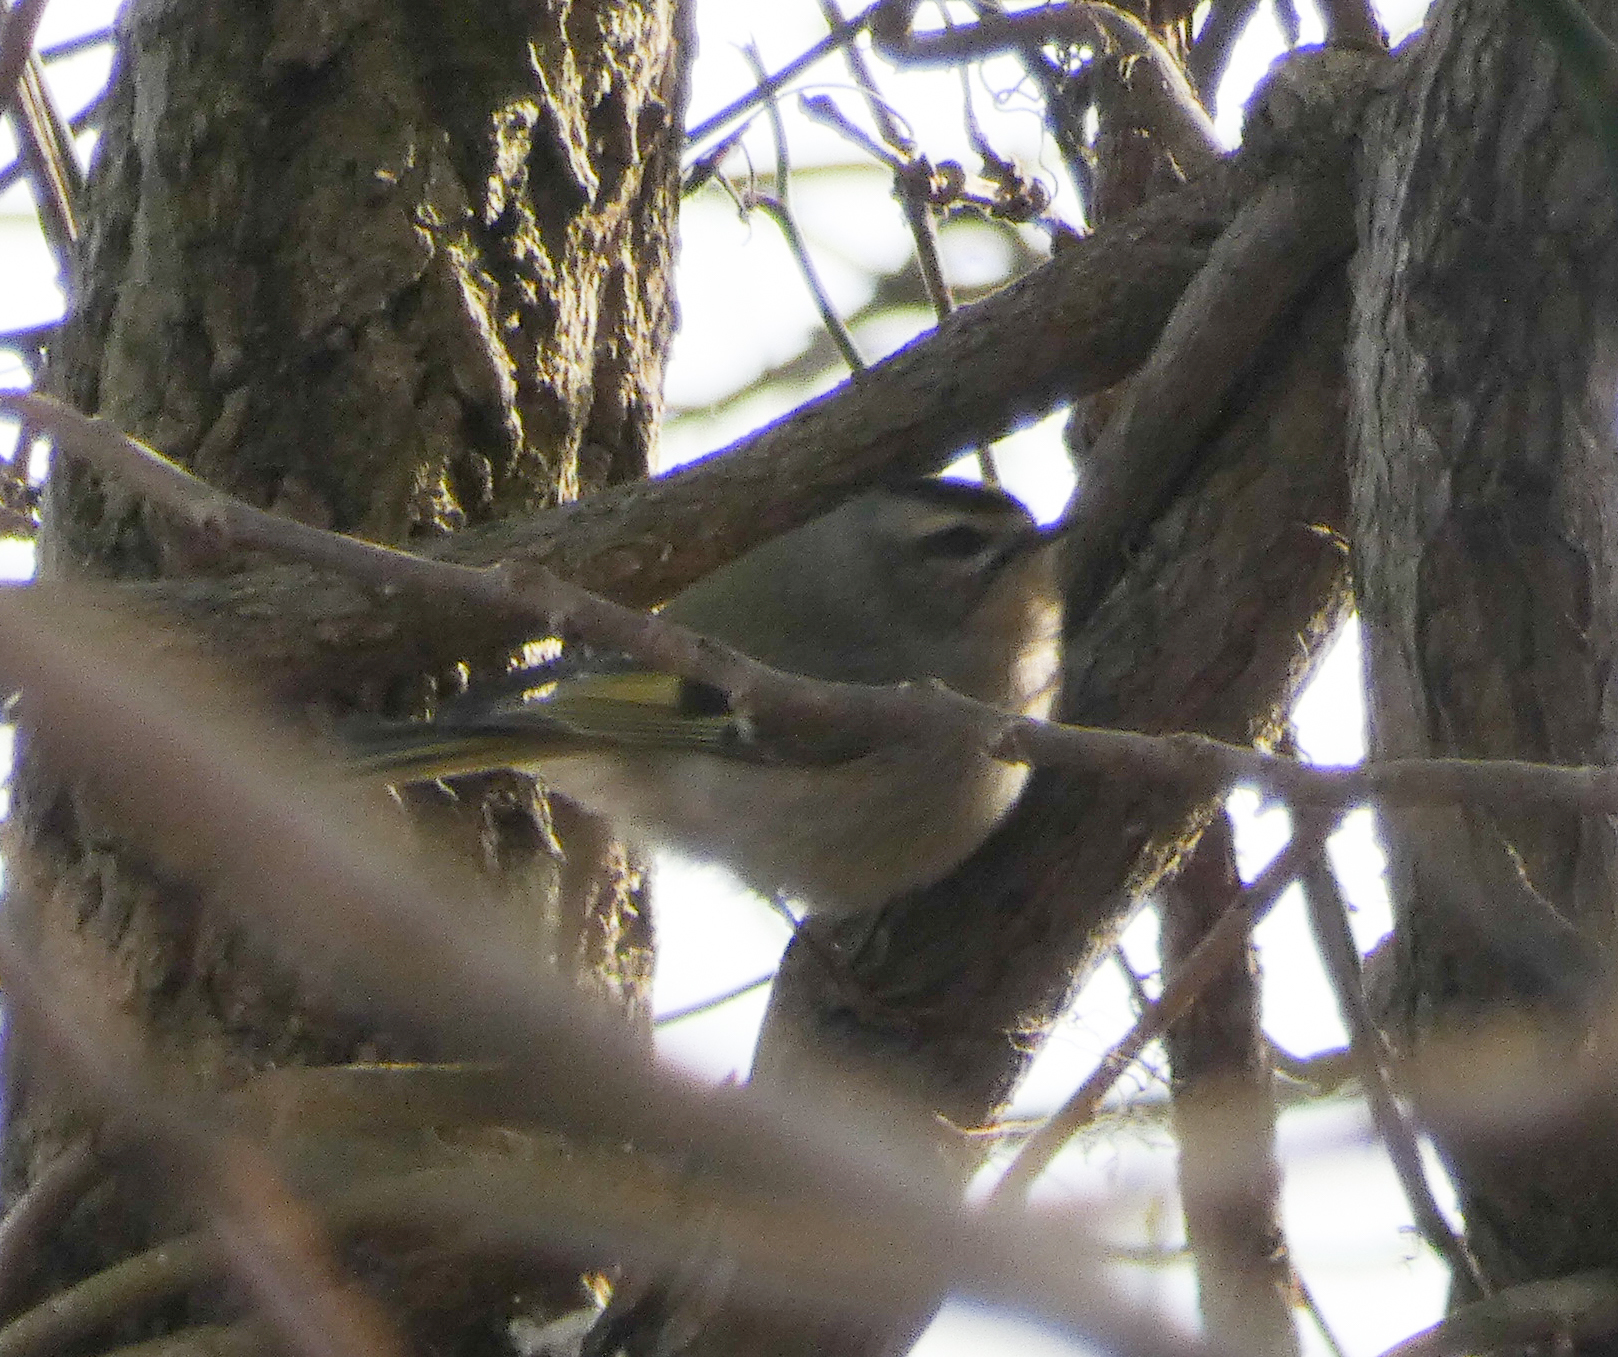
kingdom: Animalia
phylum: Chordata
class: Aves
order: Passeriformes
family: Regulidae
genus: Regulus
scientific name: Regulus satrapa
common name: Golden-crowned kinglet
